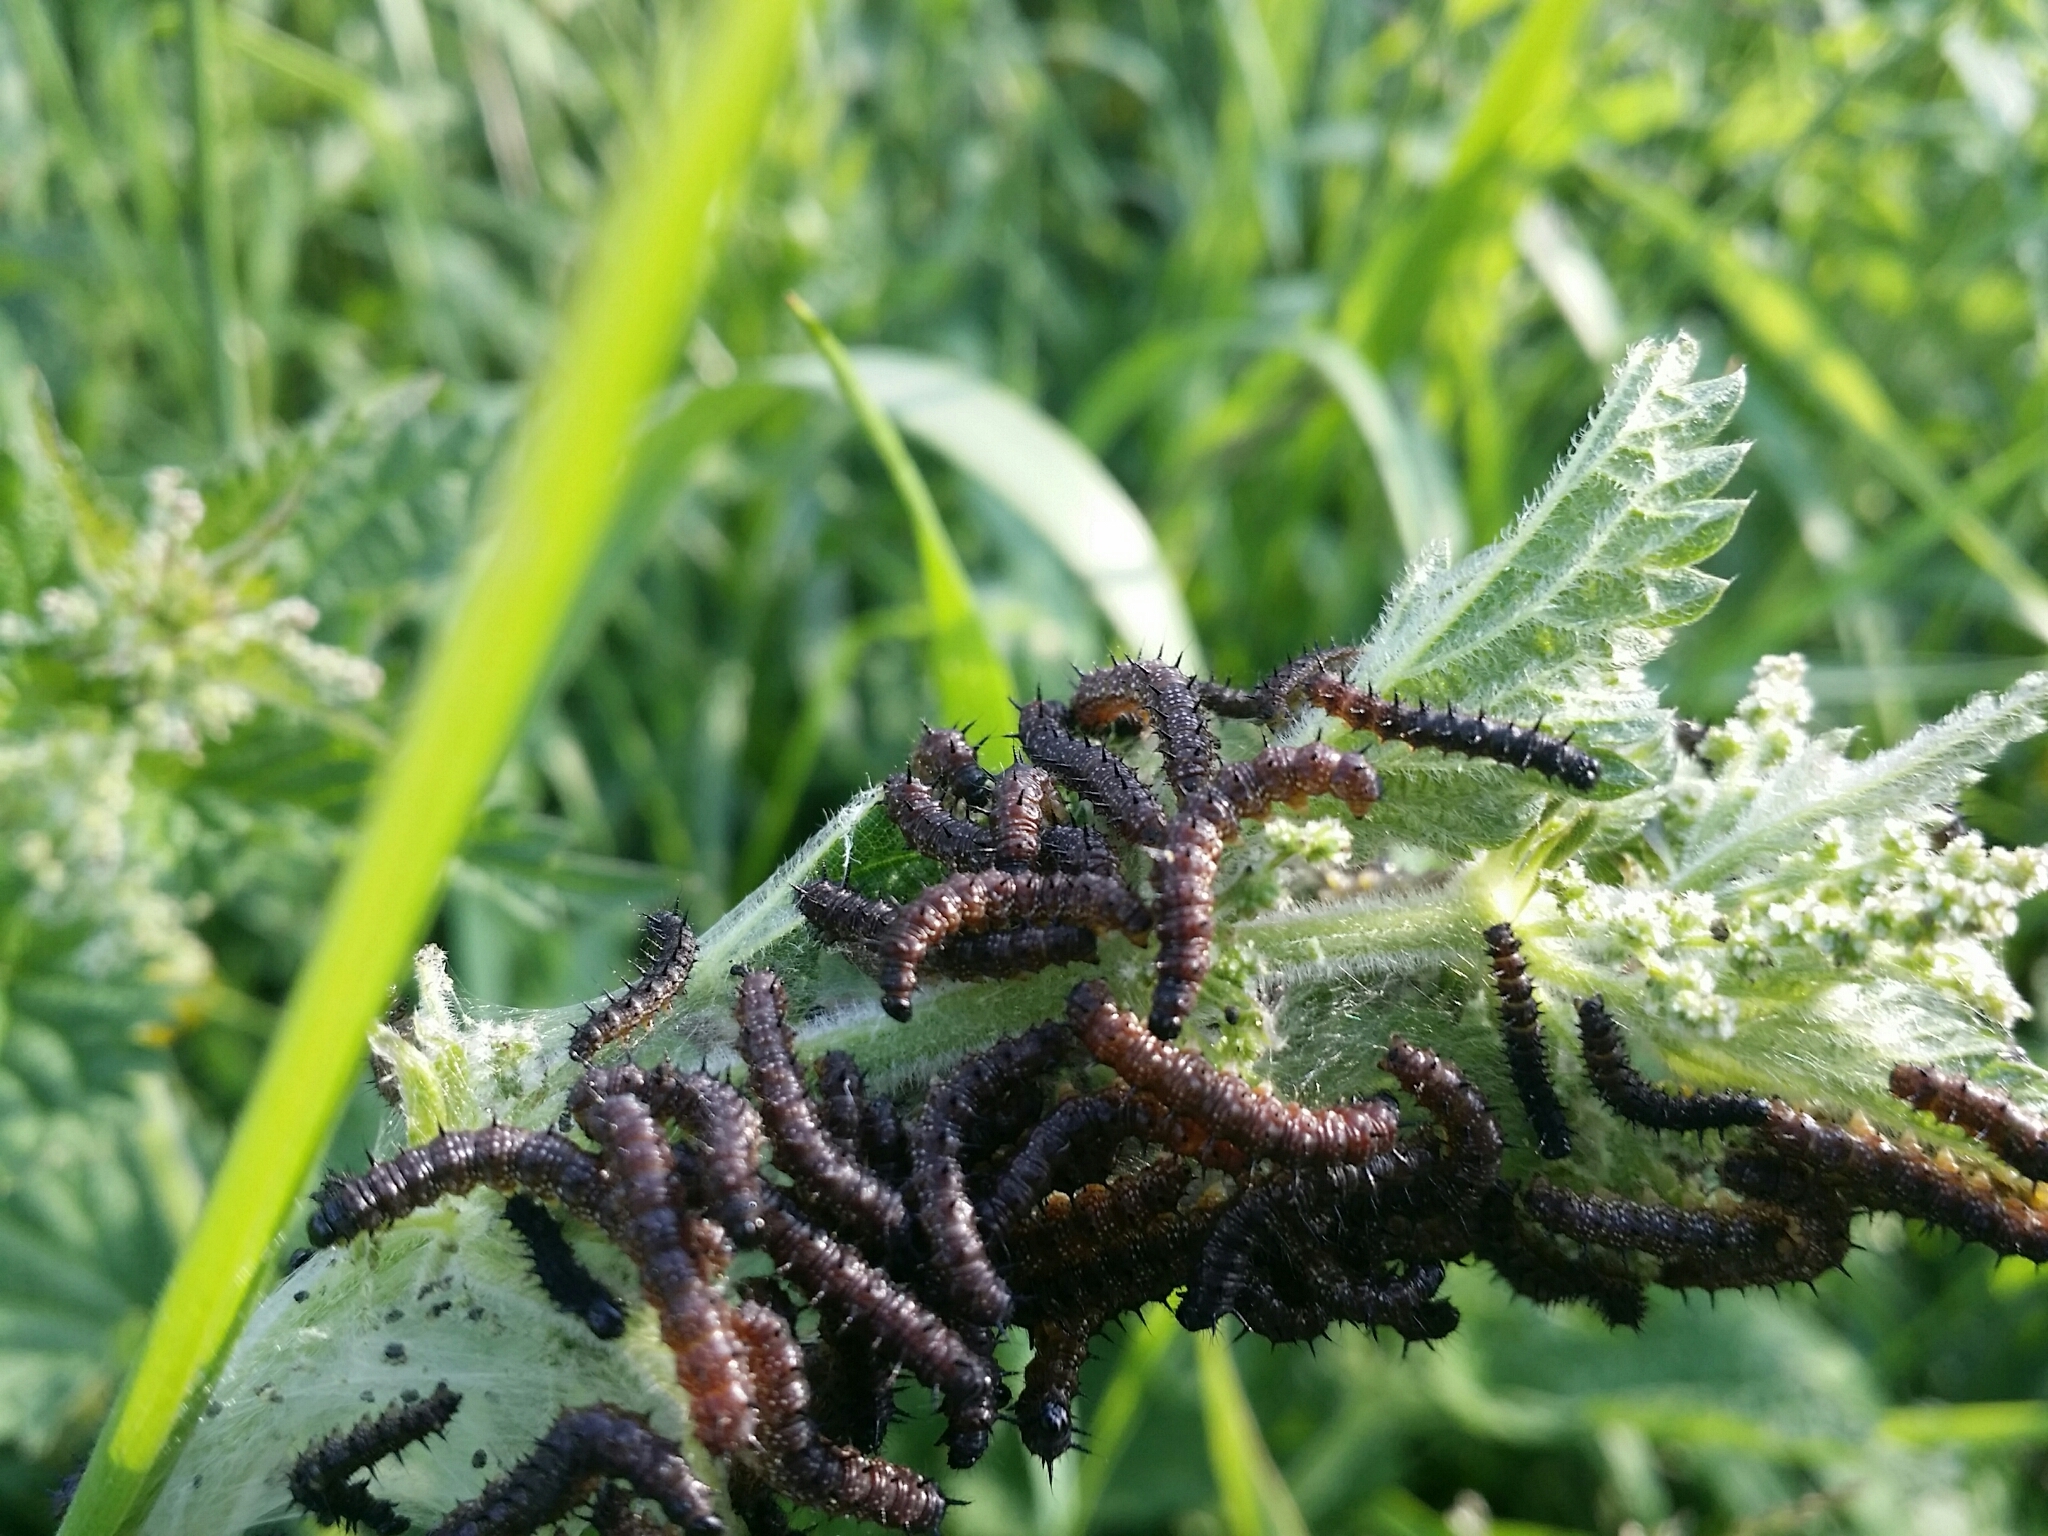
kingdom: Animalia
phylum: Arthropoda
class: Insecta
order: Lepidoptera
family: Nymphalidae
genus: Aglais
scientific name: Aglais io
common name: Peacock
